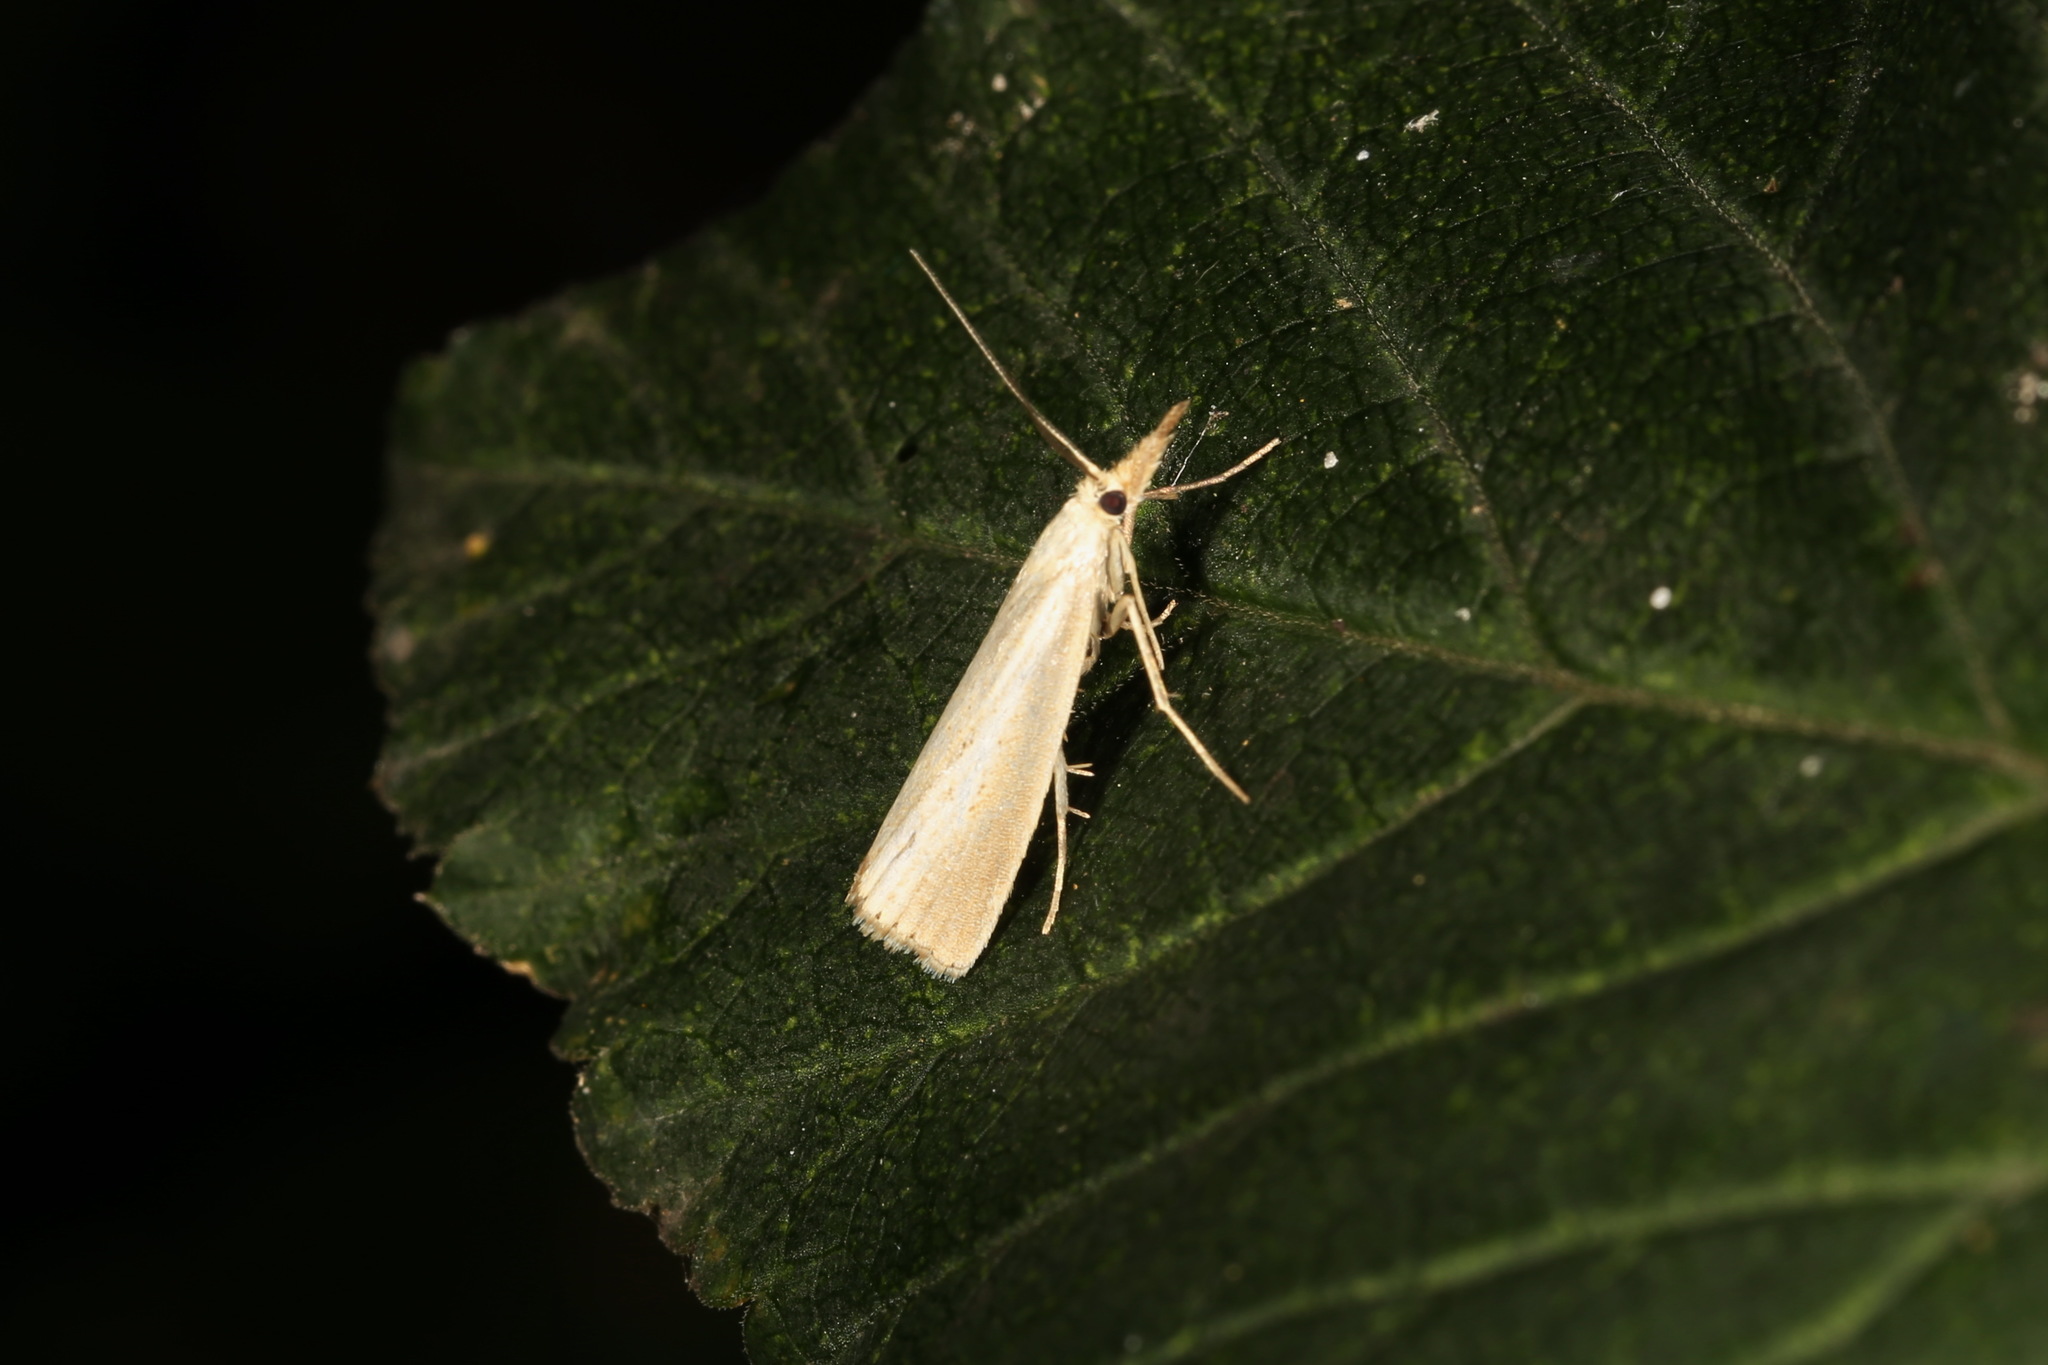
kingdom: Animalia
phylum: Arthropoda
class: Insecta
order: Lepidoptera
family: Crambidae
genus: Agriphila
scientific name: Agriphila straminella
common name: Straw grass-veneer
